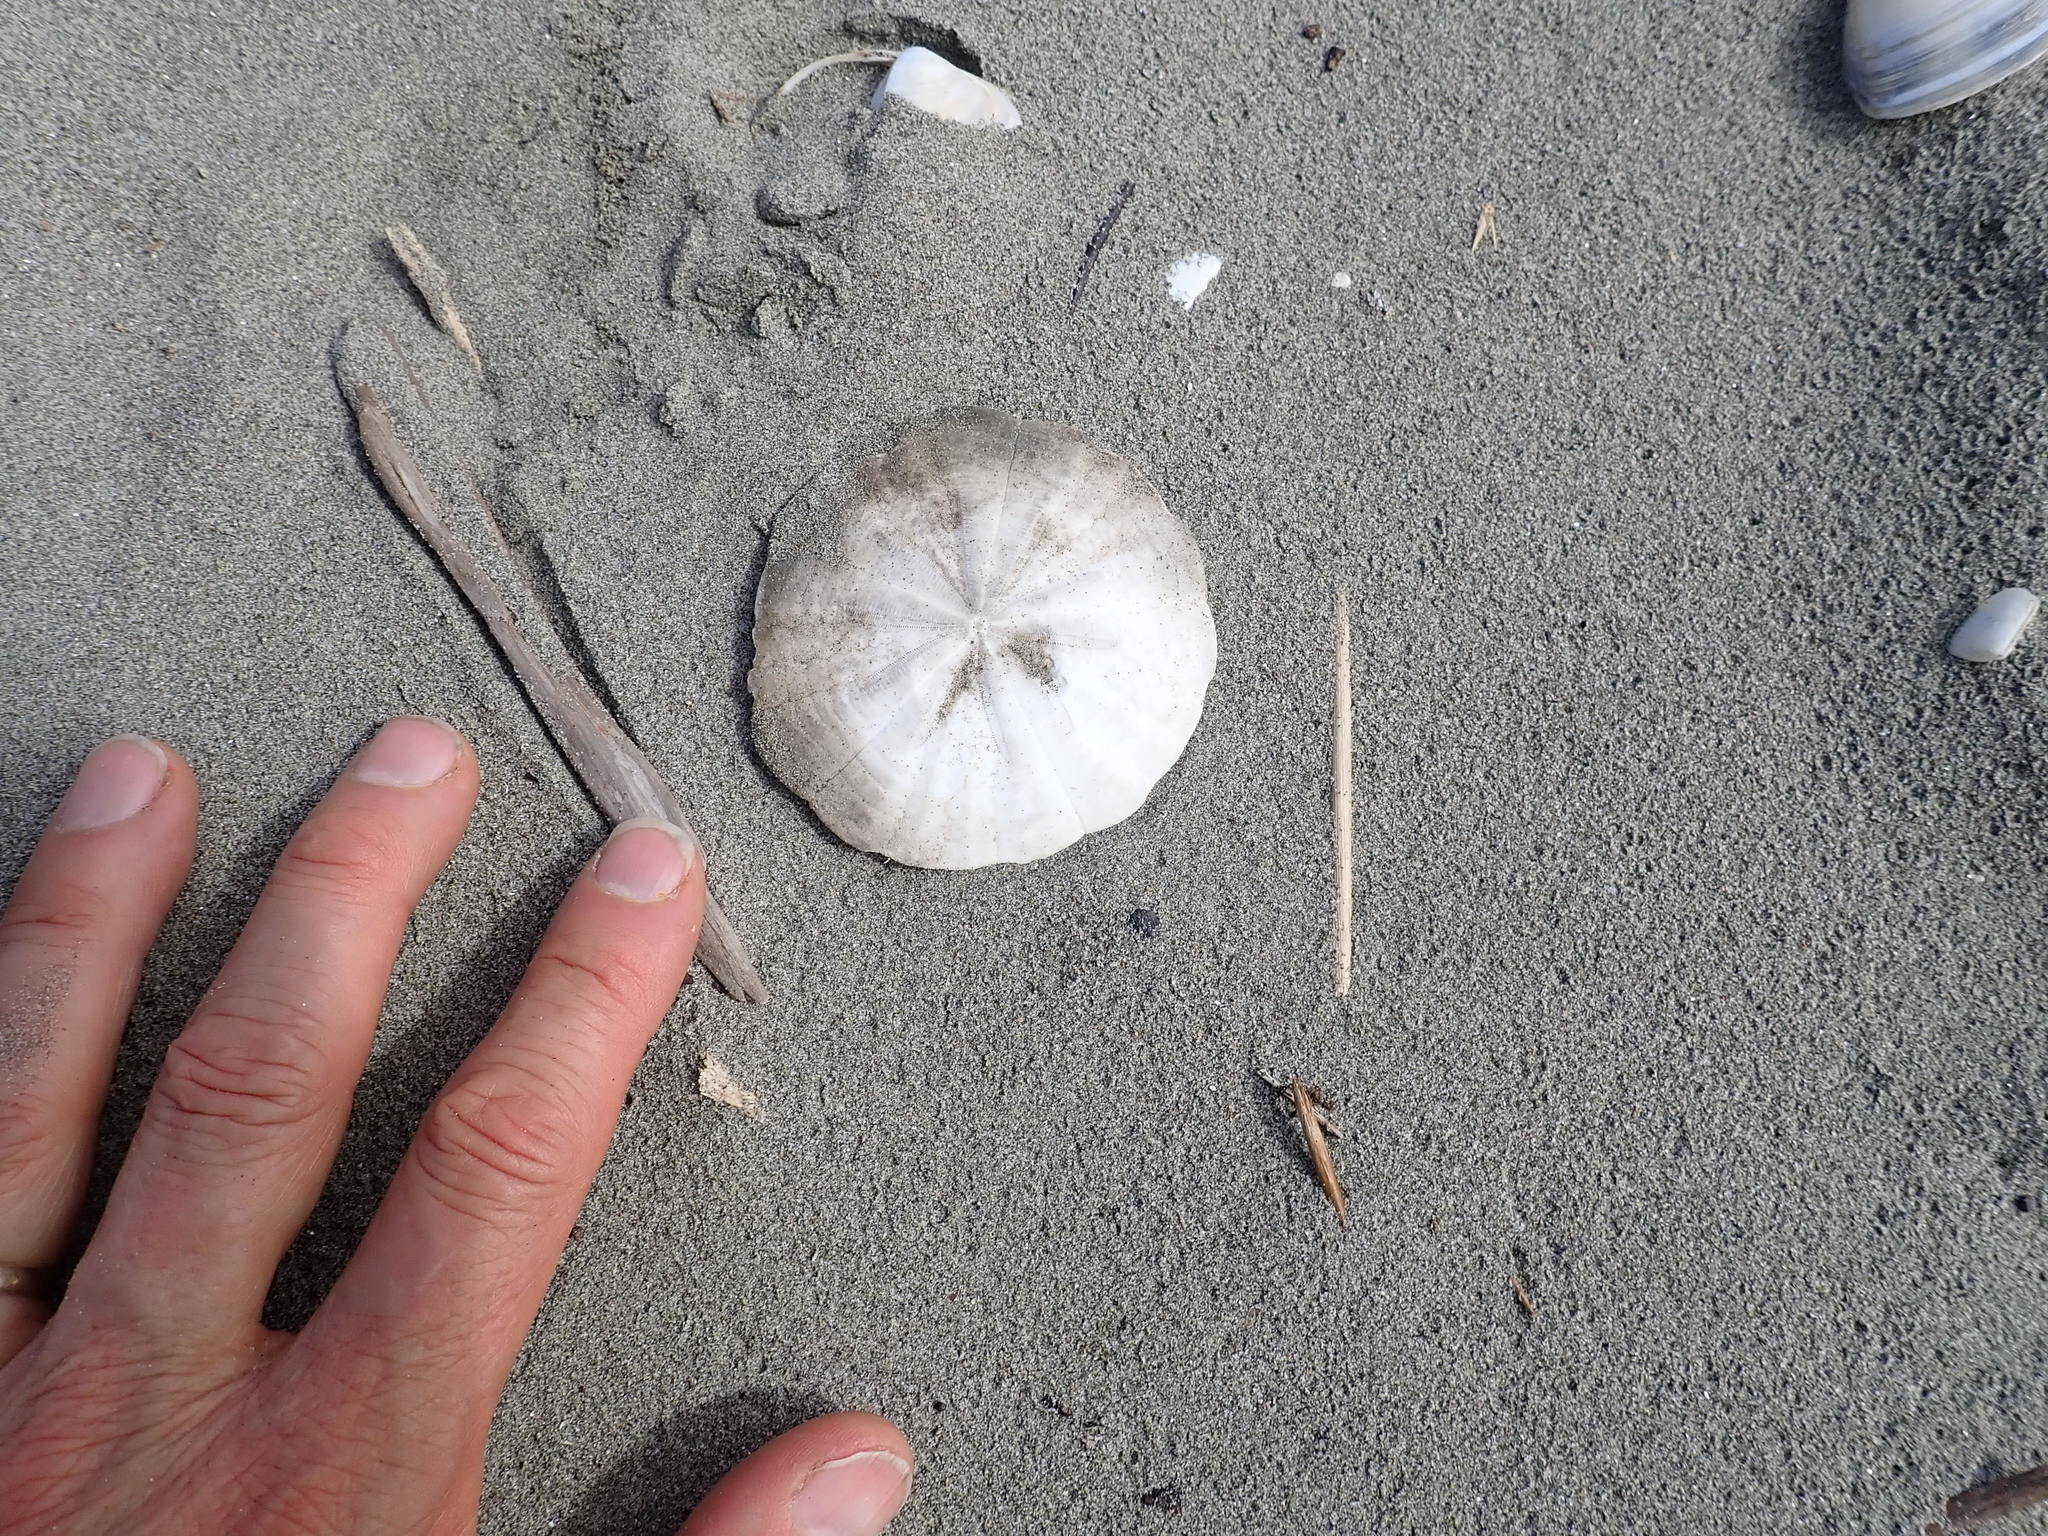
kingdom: Animalia
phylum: Echinodermata
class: Echinoidea
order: Clypeasteroida
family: Clypeasteridae
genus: Fellaster
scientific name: Fellaster zelandiae
